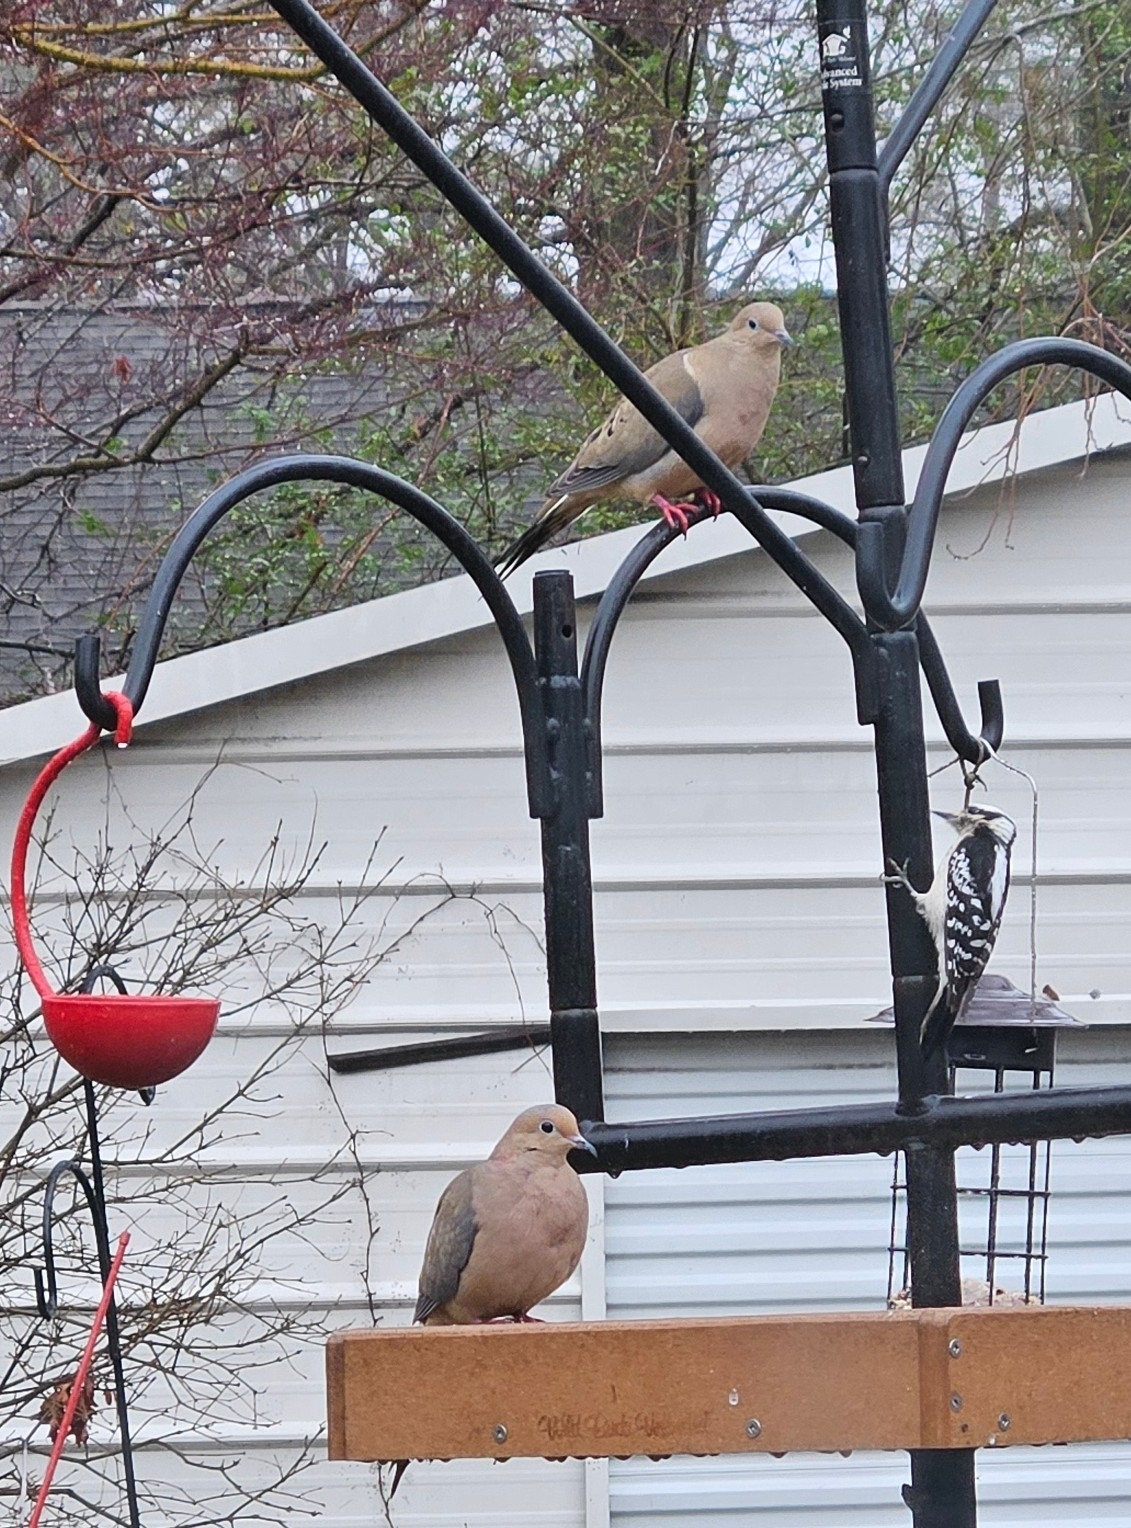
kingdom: Animalia
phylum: Chordata
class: Aves
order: Columbiformes
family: Columbidae
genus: Zenaida
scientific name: Zenaida macroura
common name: Mourning dove
